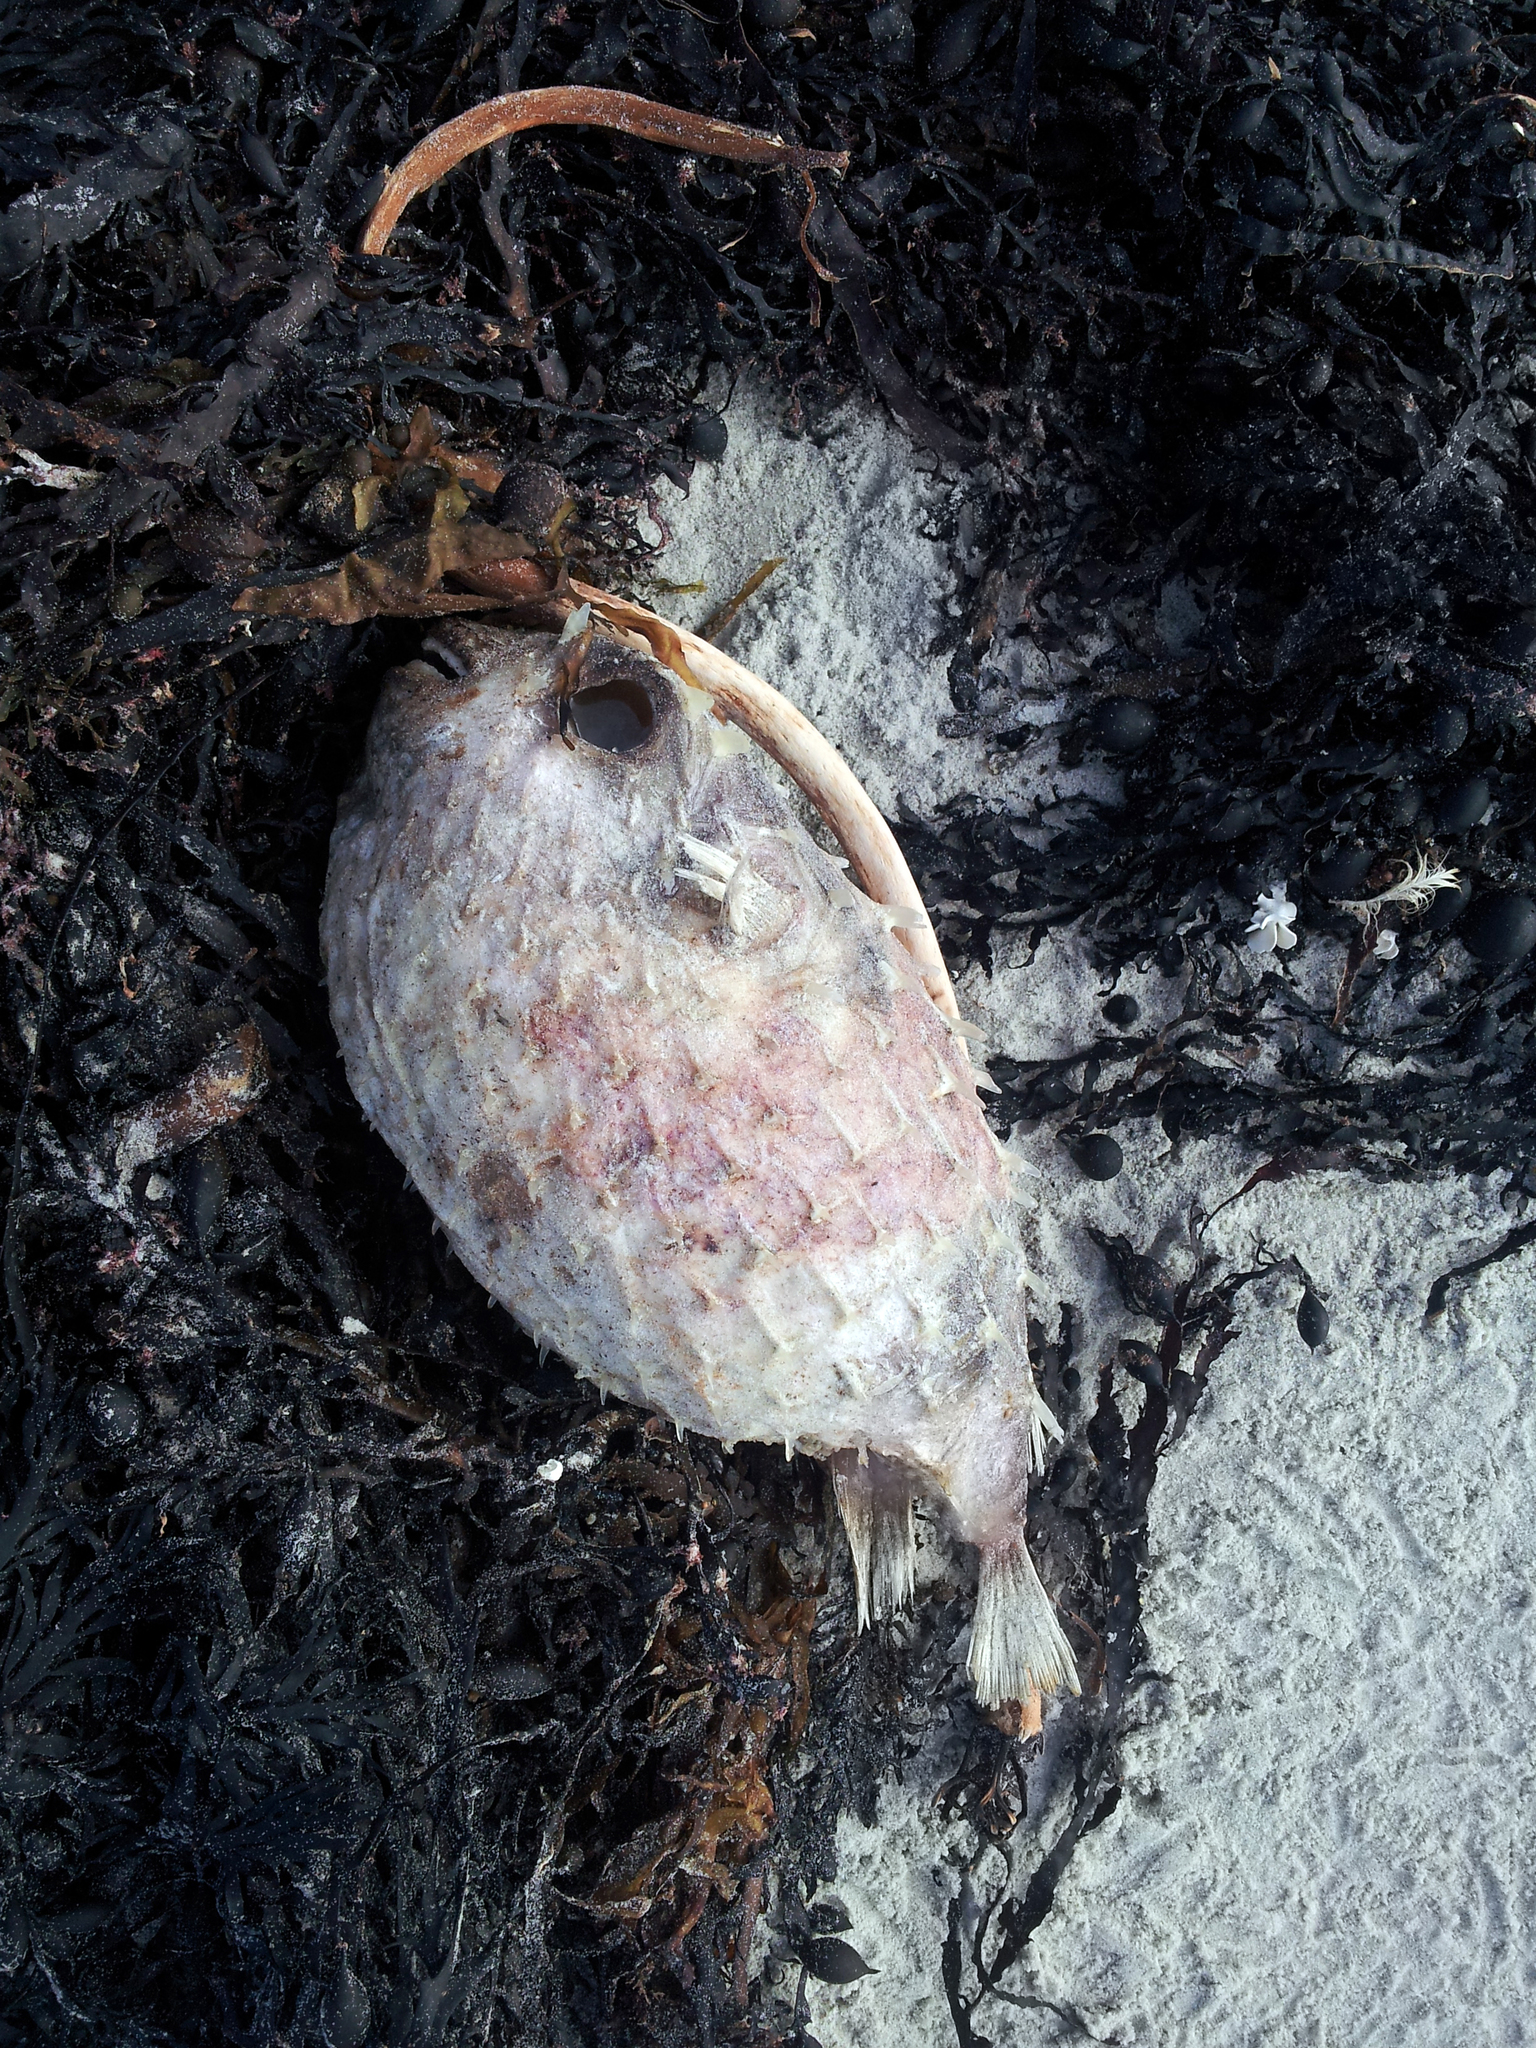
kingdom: Animalia
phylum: Chordata
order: Tetraodontiformes
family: Diodontidae
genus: Allomycterus
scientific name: Allomycterus pilatus
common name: No common name
